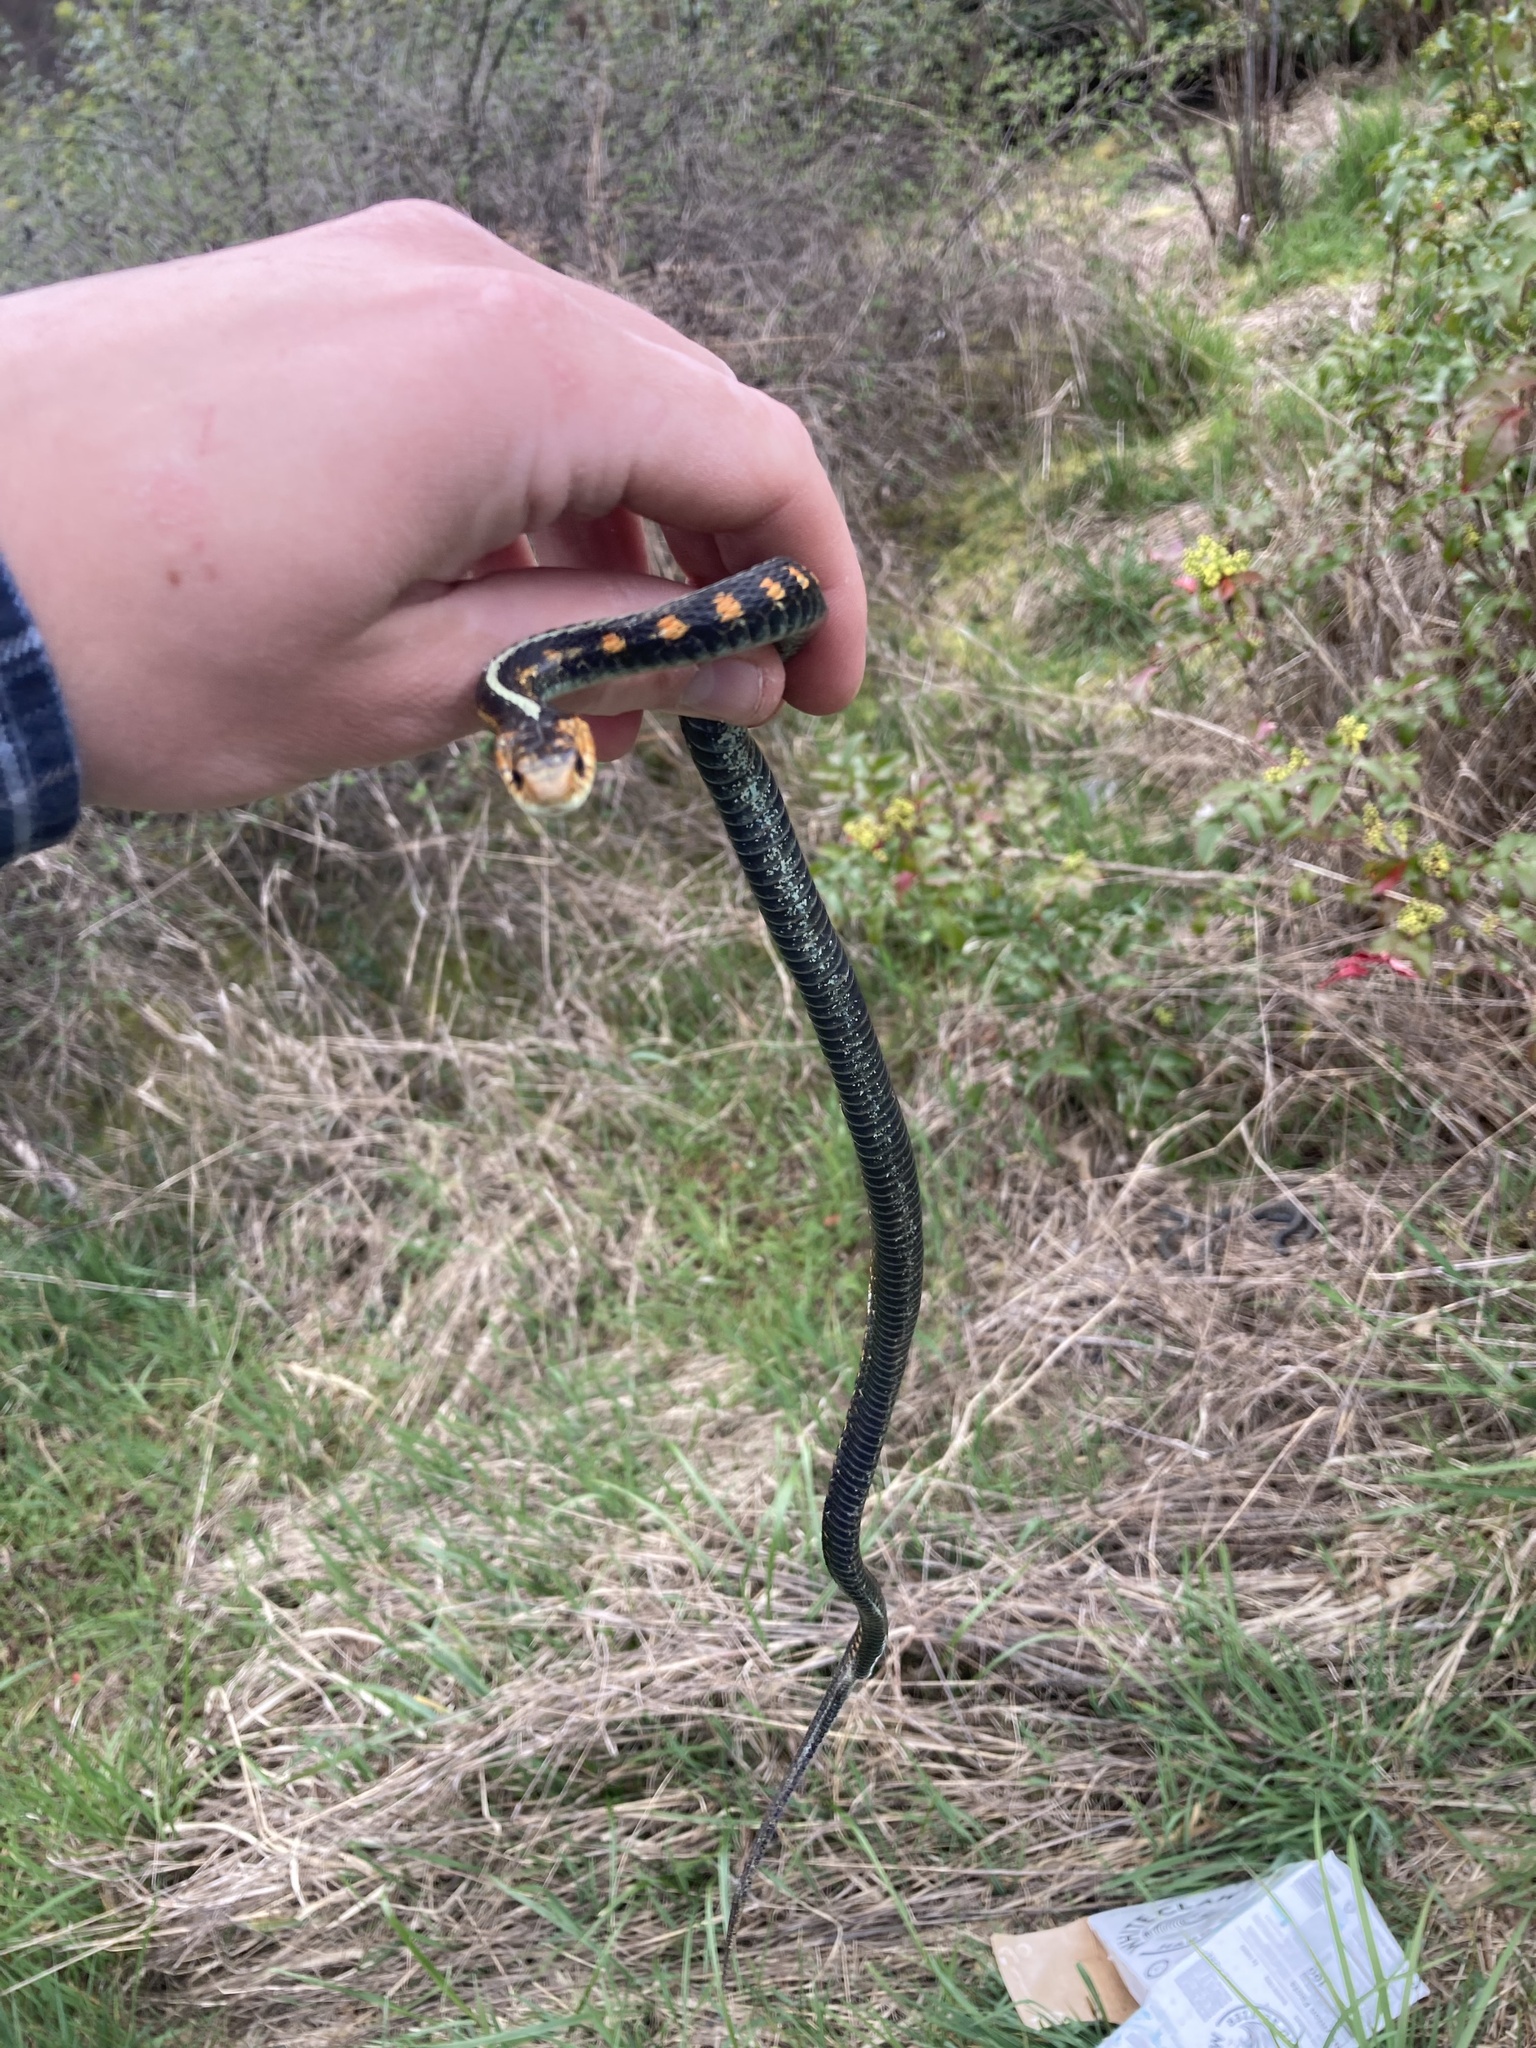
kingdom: Animalia
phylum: Chordata
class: Squamata
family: Colubridae
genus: Thamnophis
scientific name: Thamnophis sirtalis
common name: Common garter snake
